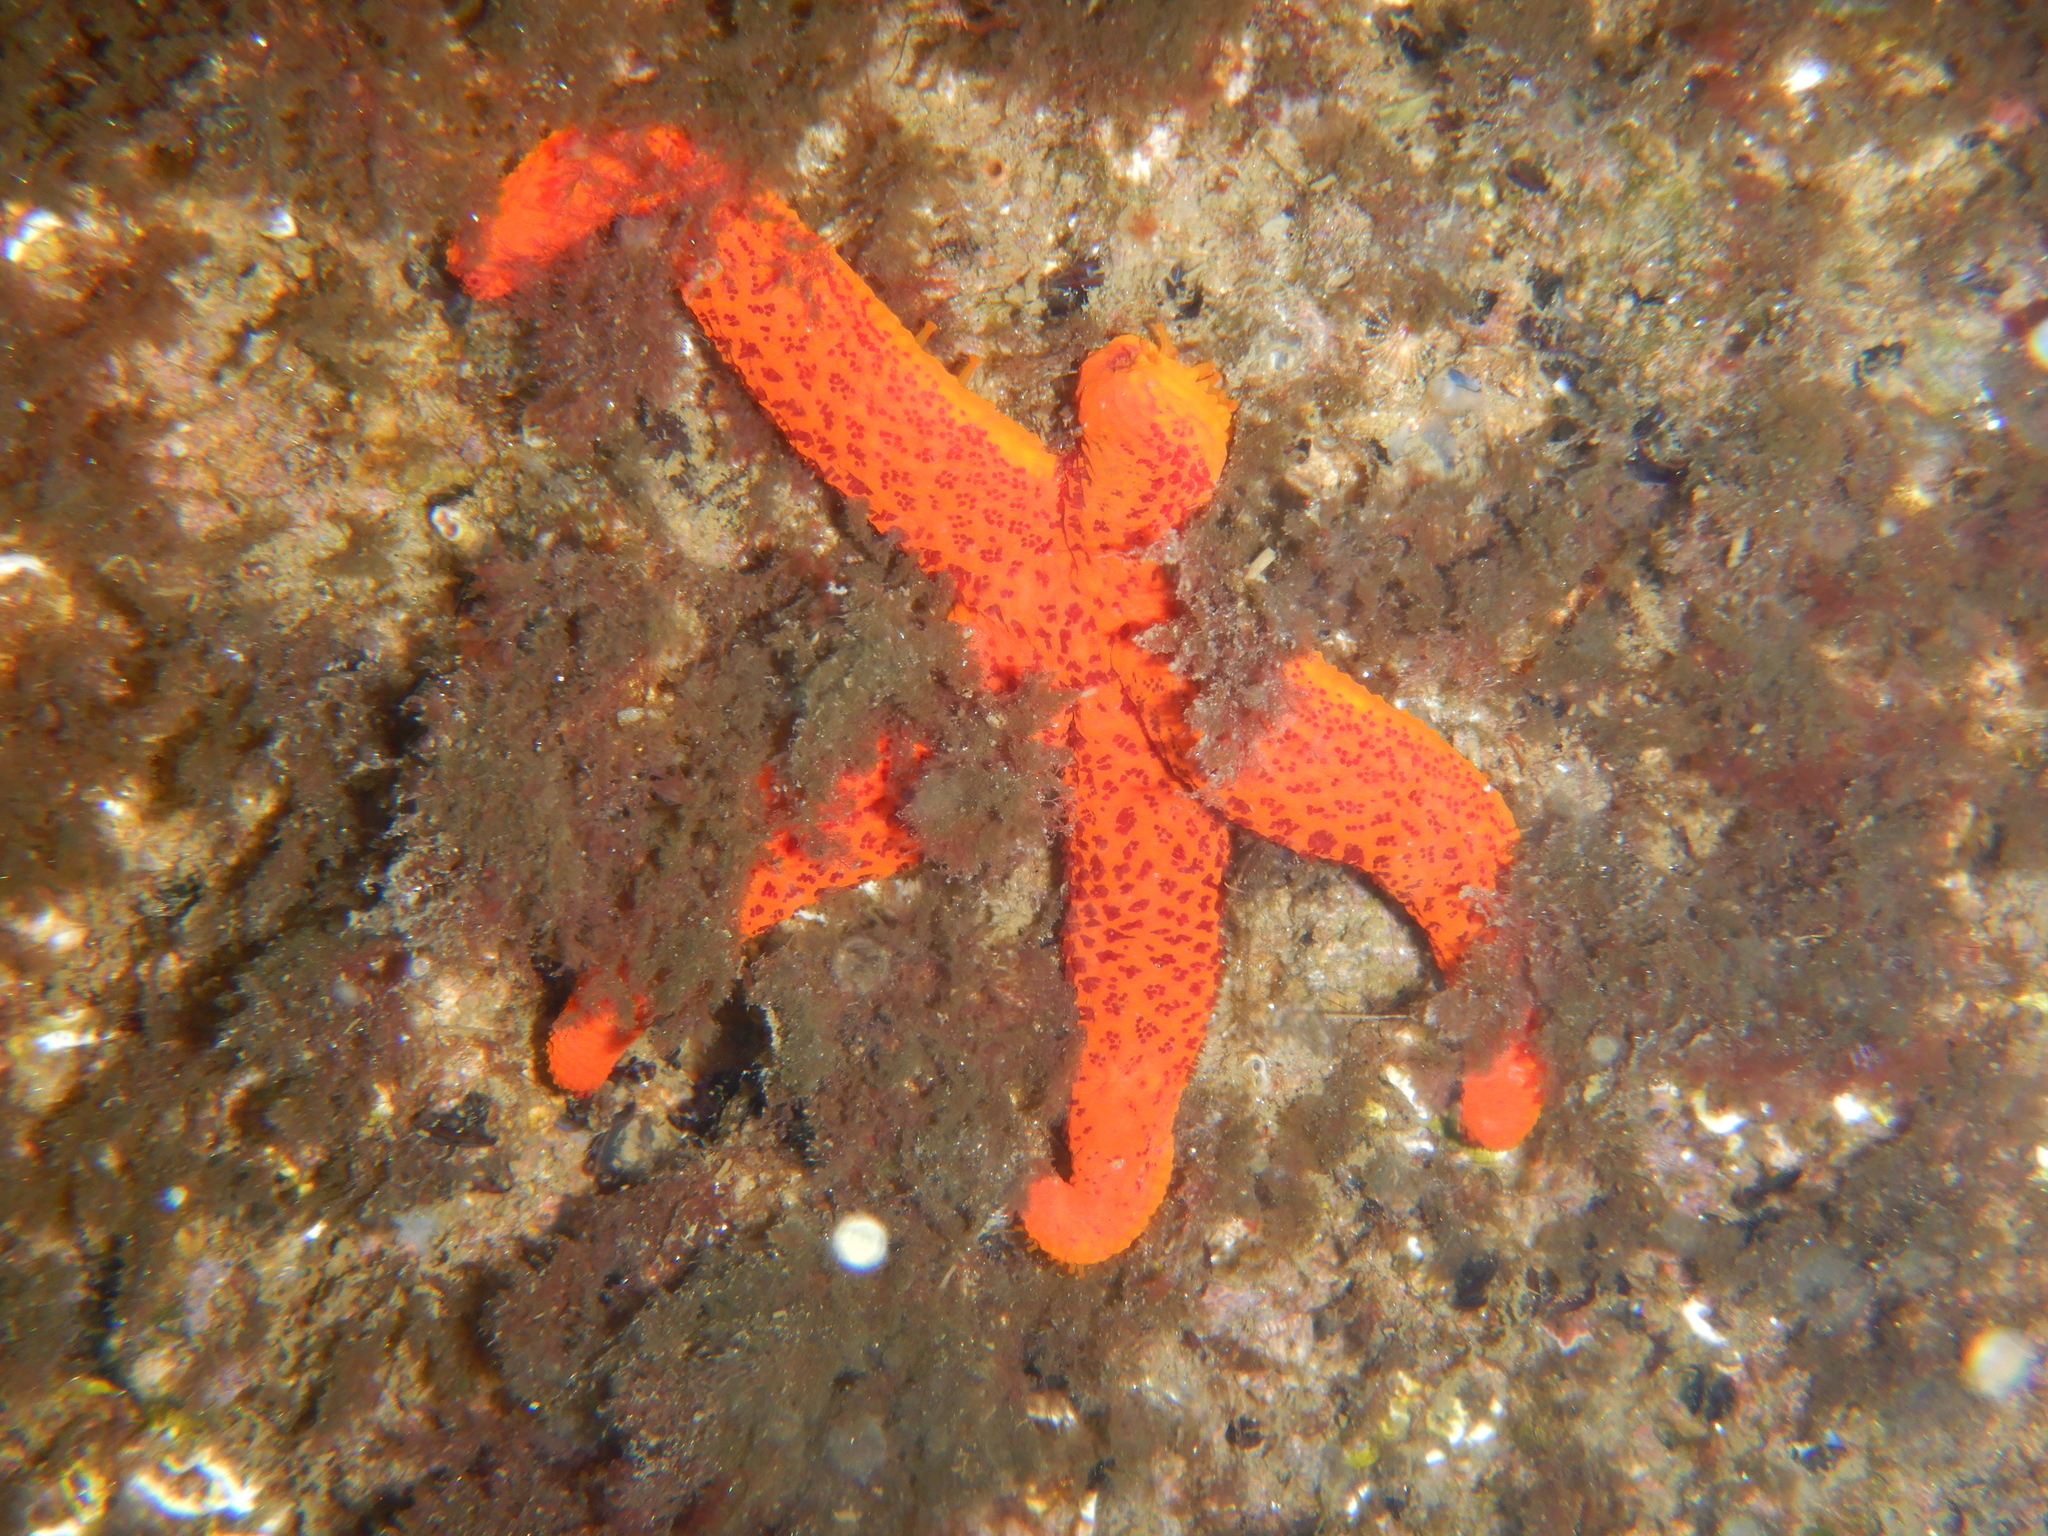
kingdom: Animalia
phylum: Echinodermata
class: Asteroidea
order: Spinulosida
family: Echinasteridae
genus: Echinaster
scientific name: Echinaster sepositus
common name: Red starfish
